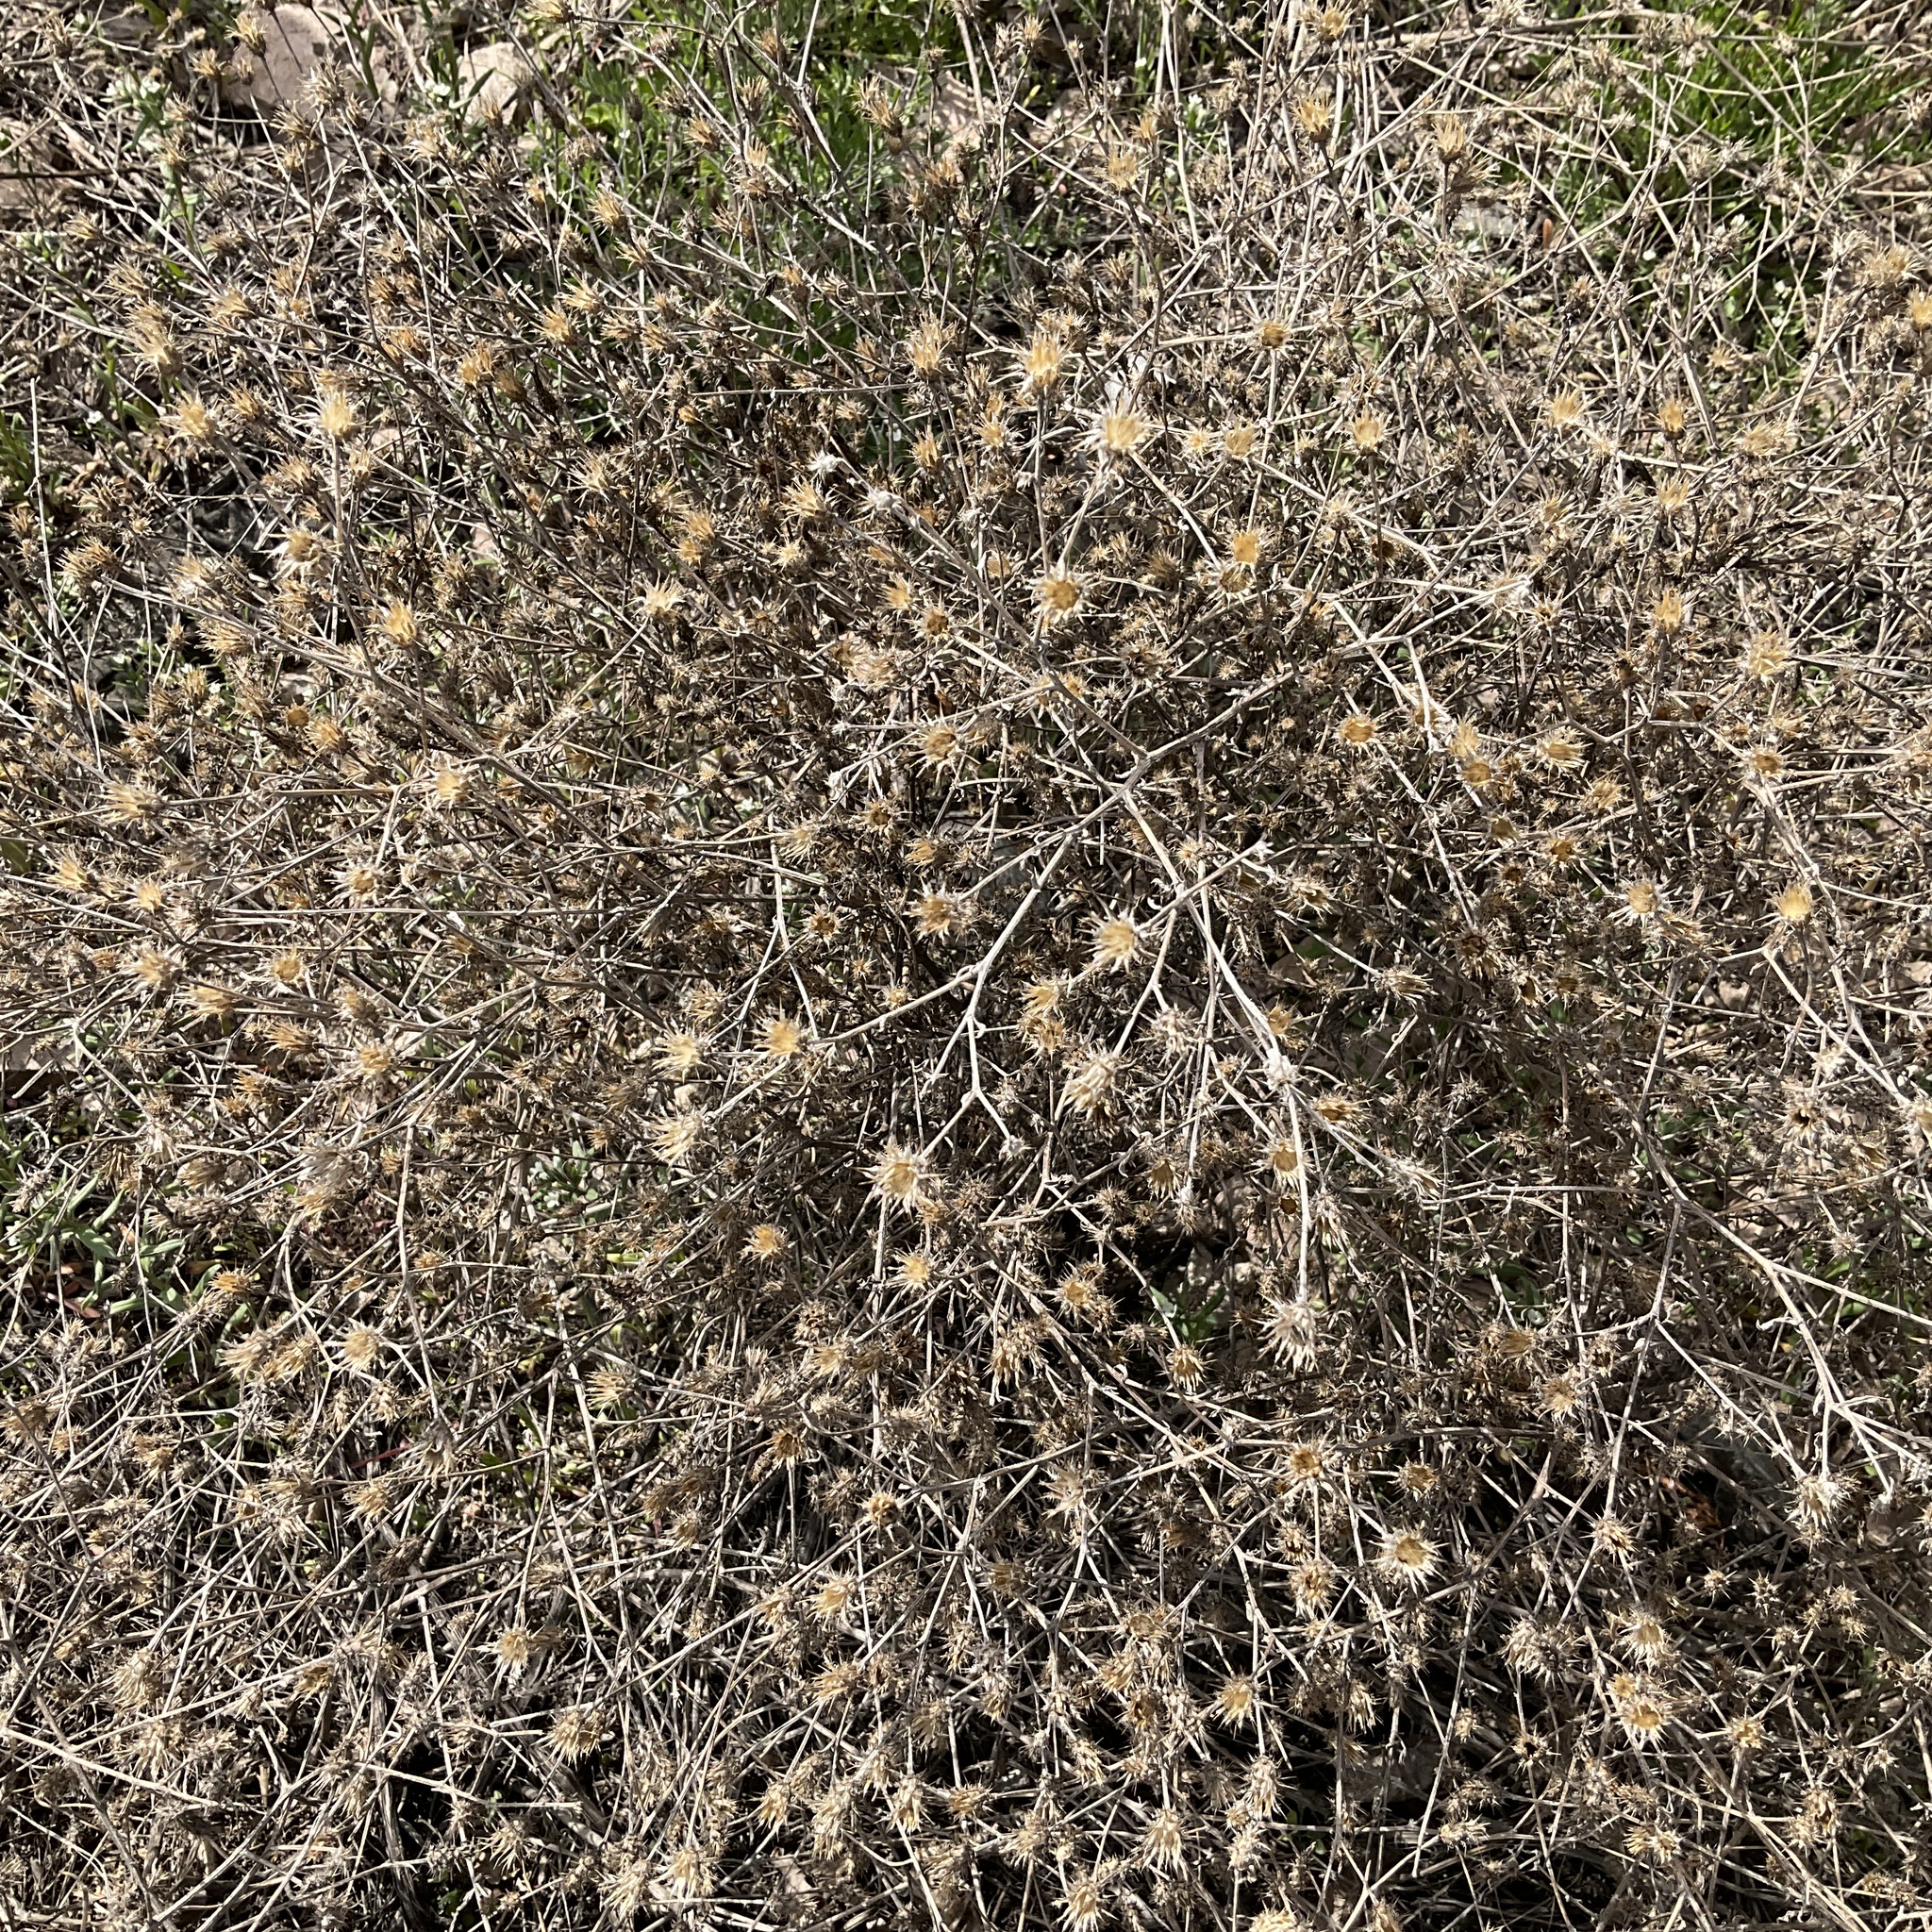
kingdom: Plantae
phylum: Tracheophyta
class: Magnoliopsida
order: Asterales
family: Asteraceae
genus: Centaurea
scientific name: Centaurea diffusa
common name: Diffuse knapweed
